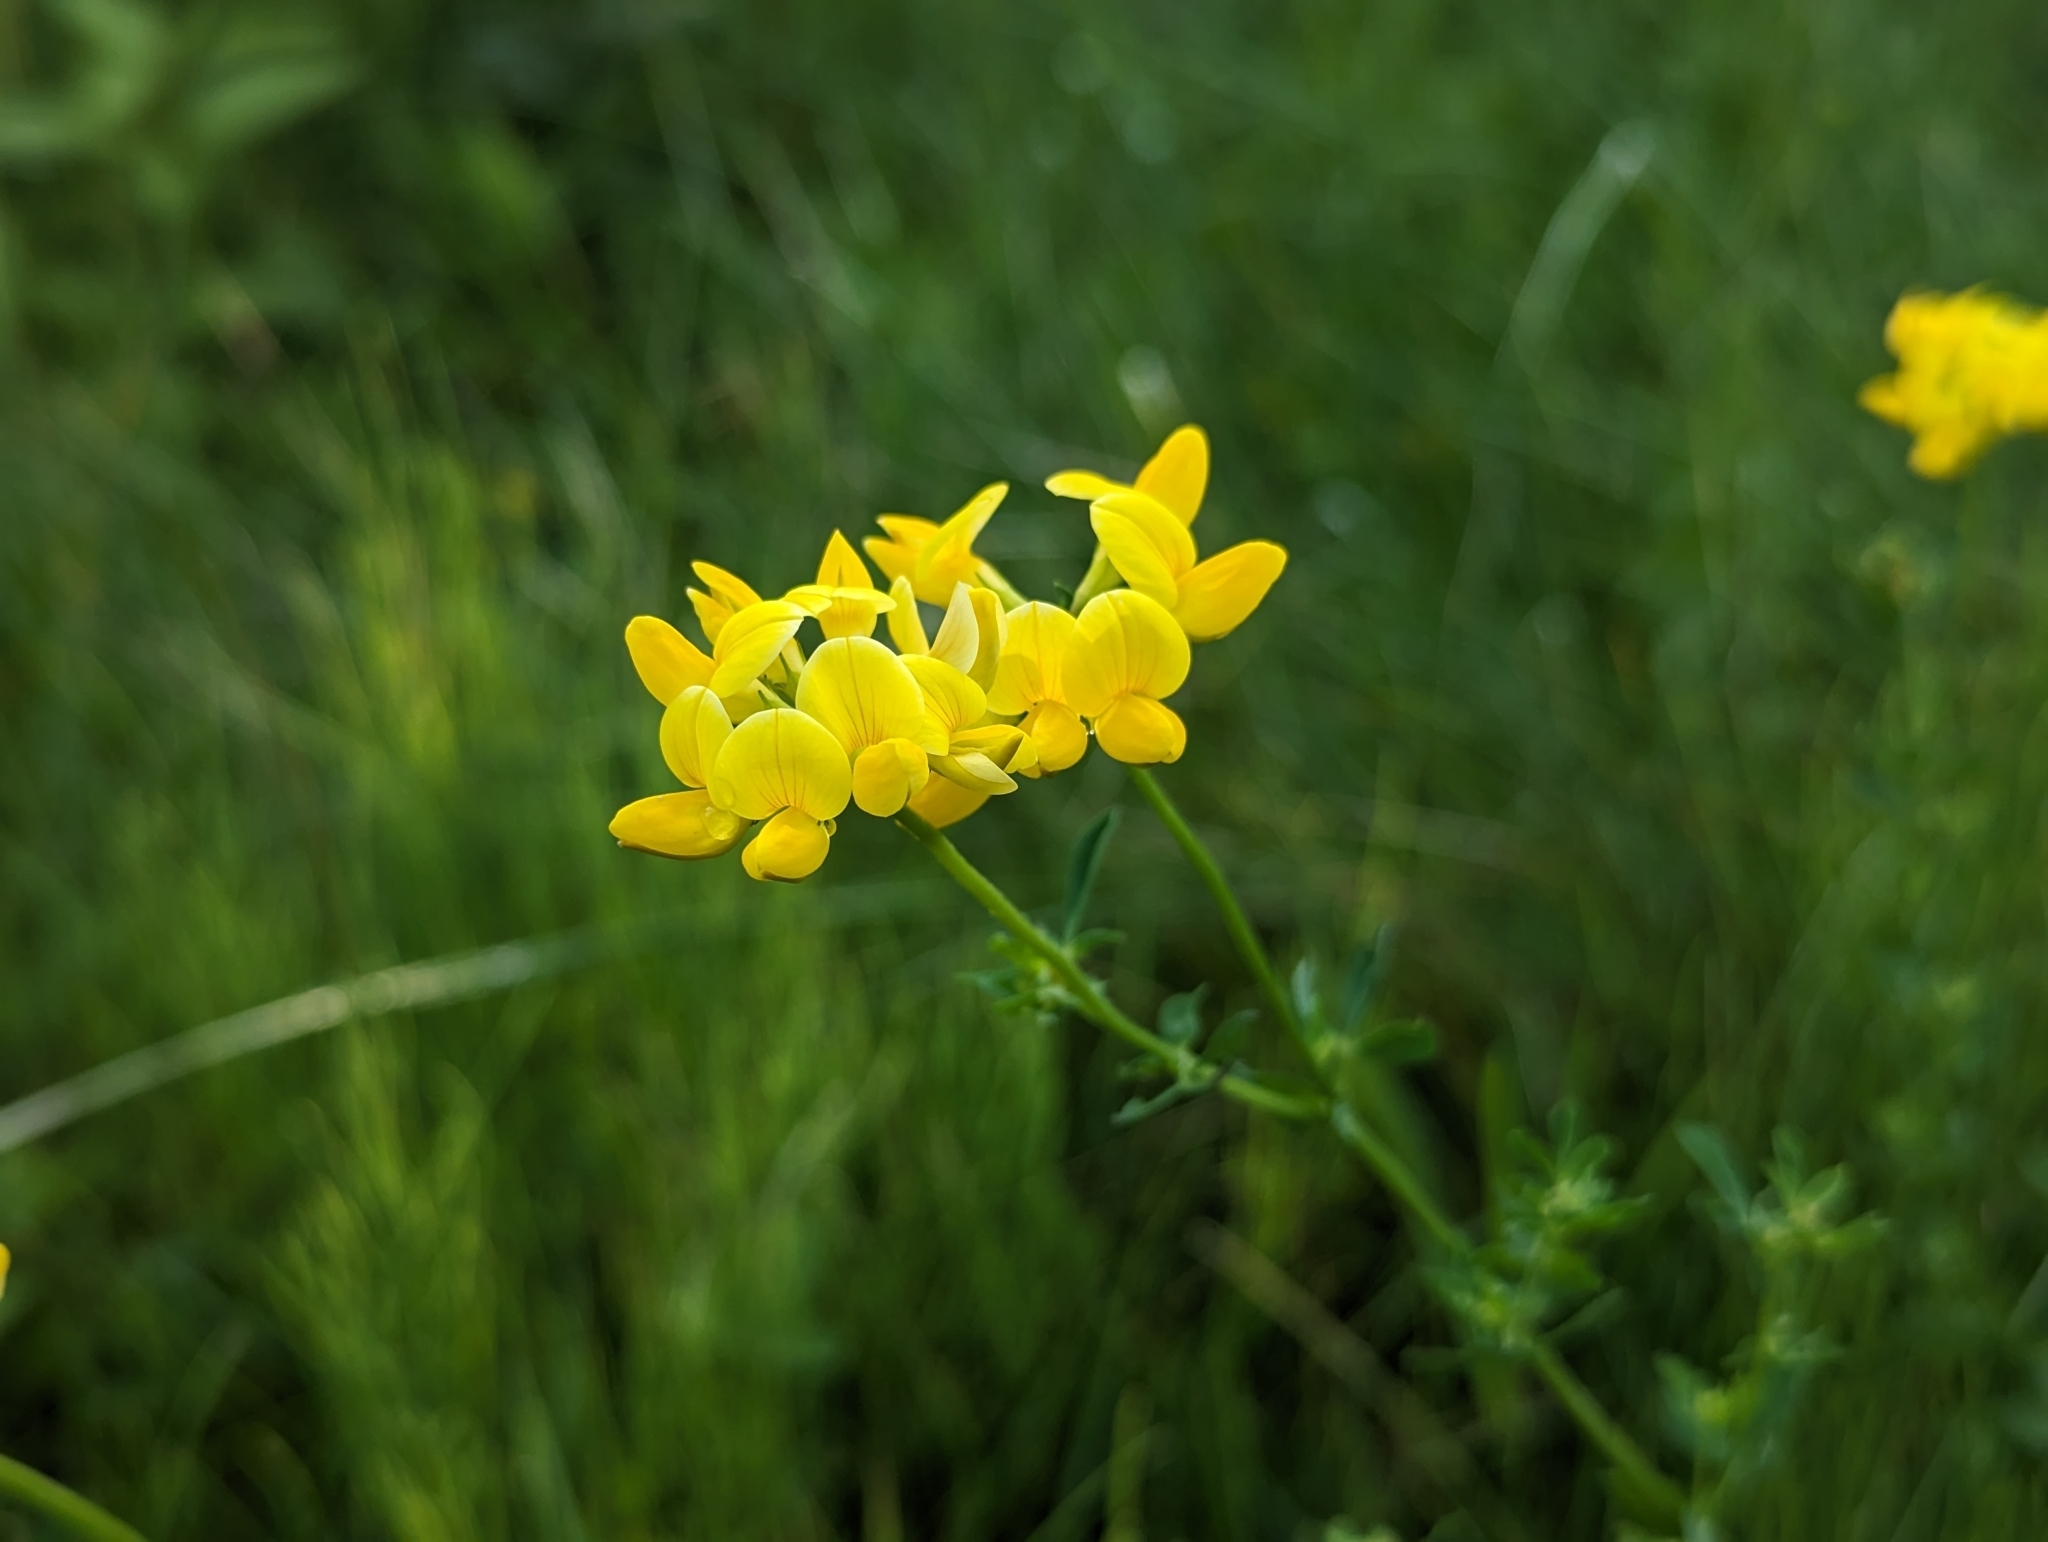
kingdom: Plantae
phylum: Tracheophyta
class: Magnoliopsida
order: Fabales
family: Fabaceae
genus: Lotus
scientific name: Lotus corniculatus
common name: Common bird's-foot-trefoil
